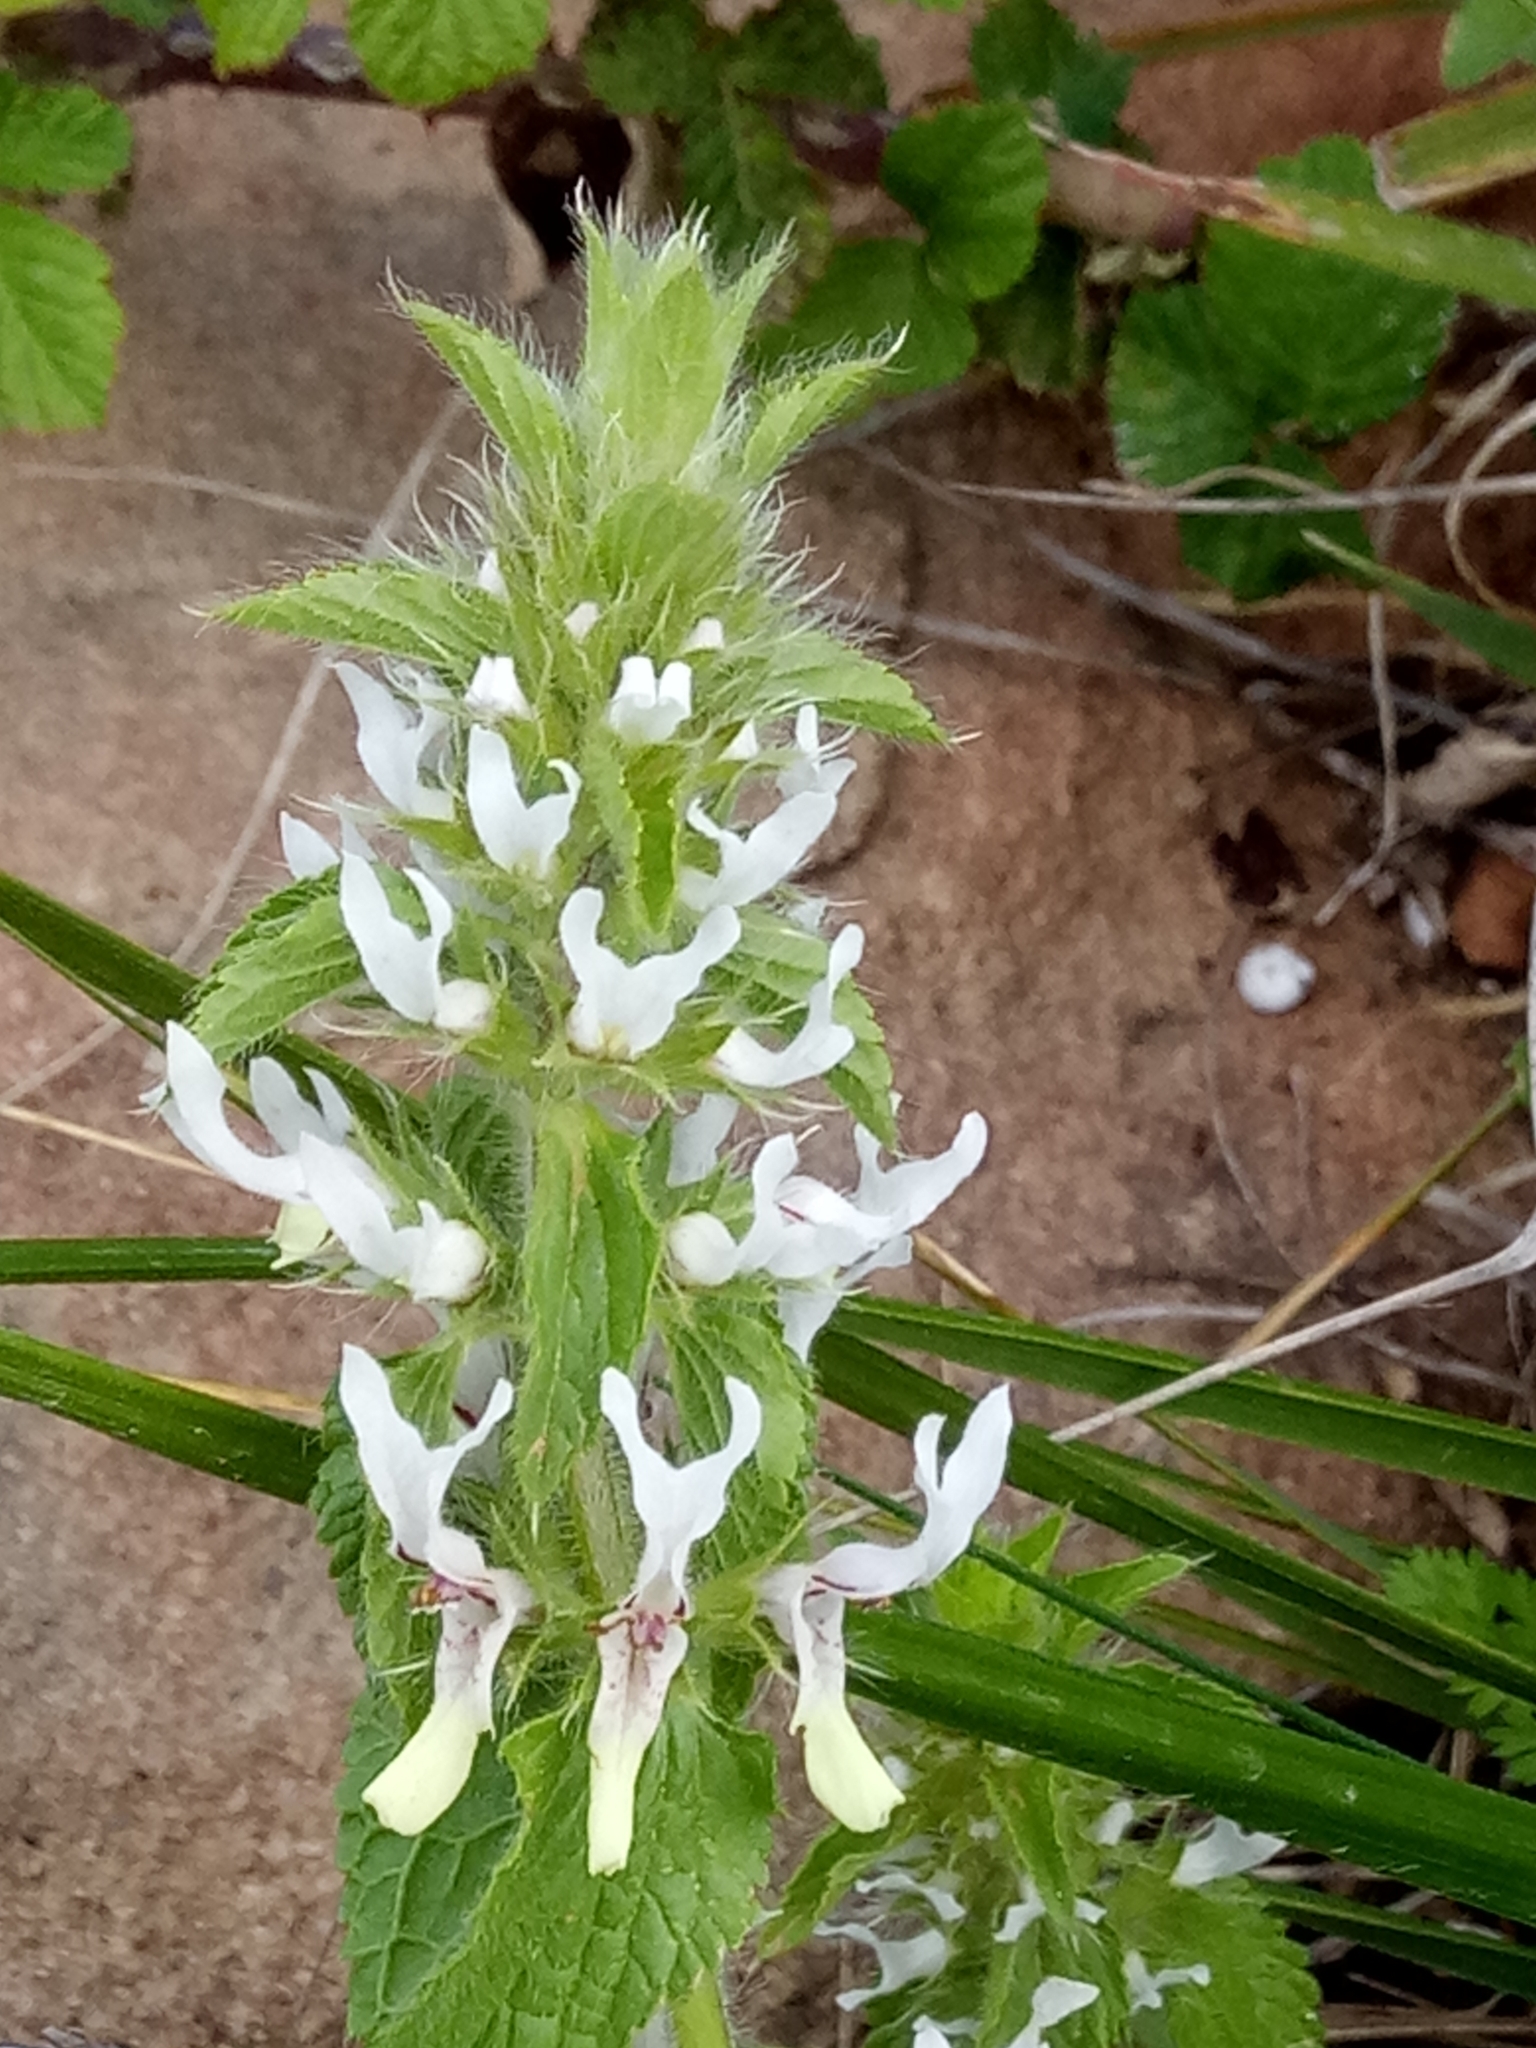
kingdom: Plantae
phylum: Tracheophyta
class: Magnoliopsida
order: Lamiales
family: Lamiaceae
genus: Stachys
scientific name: Stachys ocymastrum
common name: Italian hedgenettle
